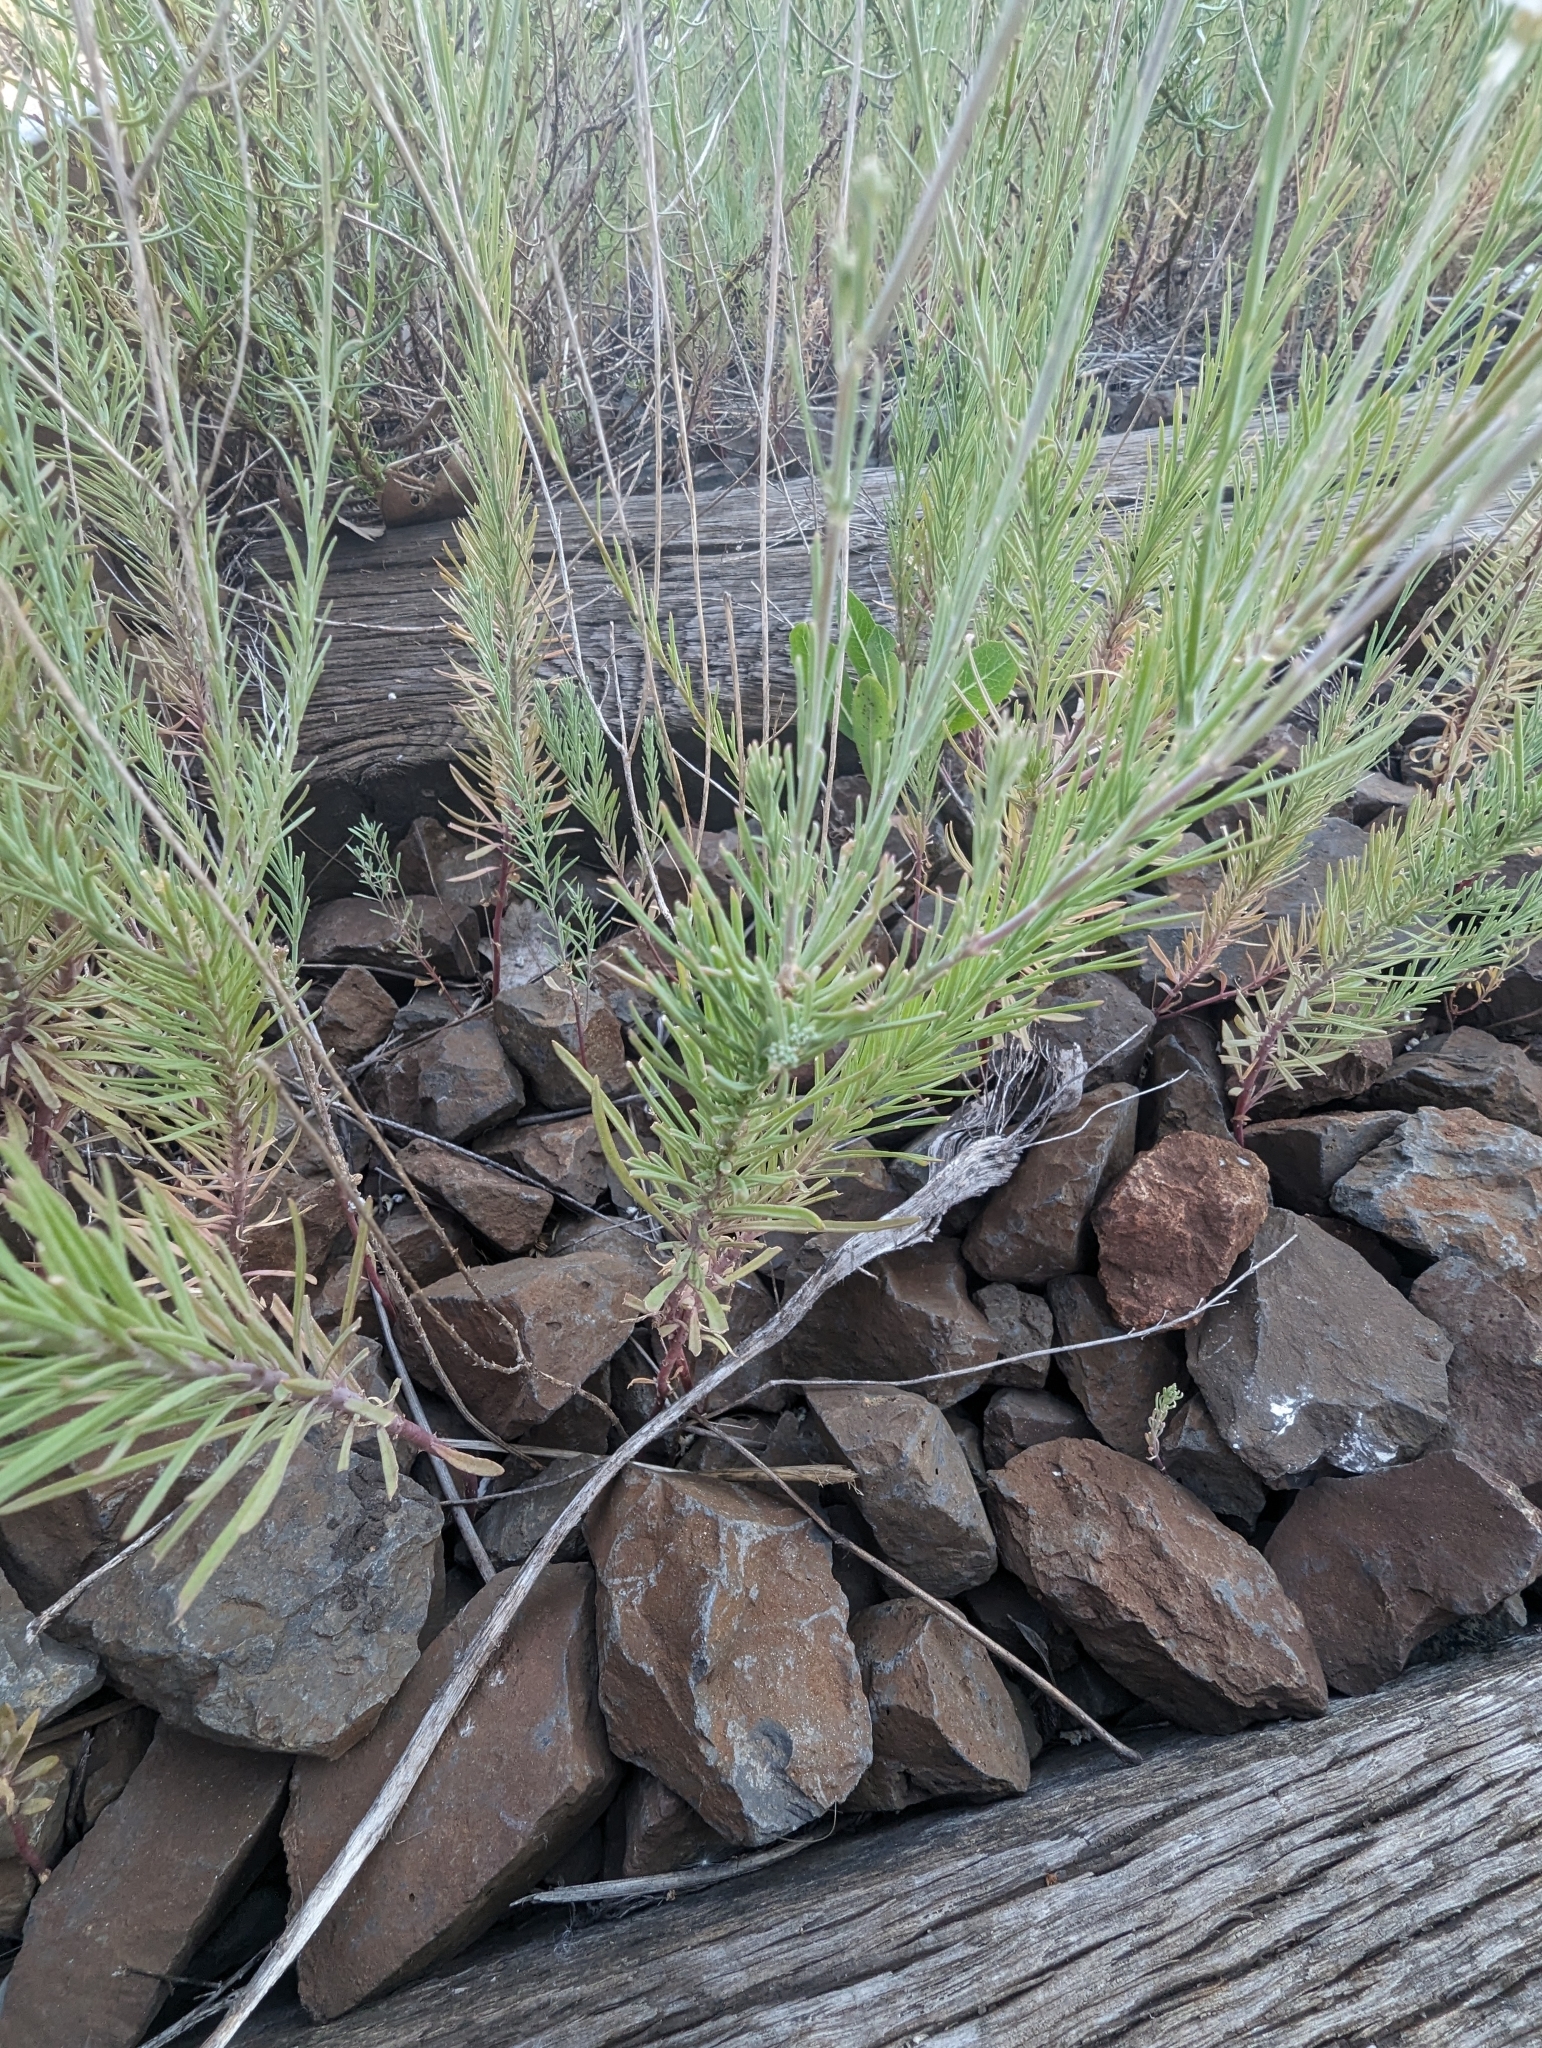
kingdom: Plantae
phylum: Tracheophyta
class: Magnoliopsida
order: Lamiales
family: Plantaginaceae
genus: Linaria
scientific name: Linaria repens
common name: Pale toadflax
